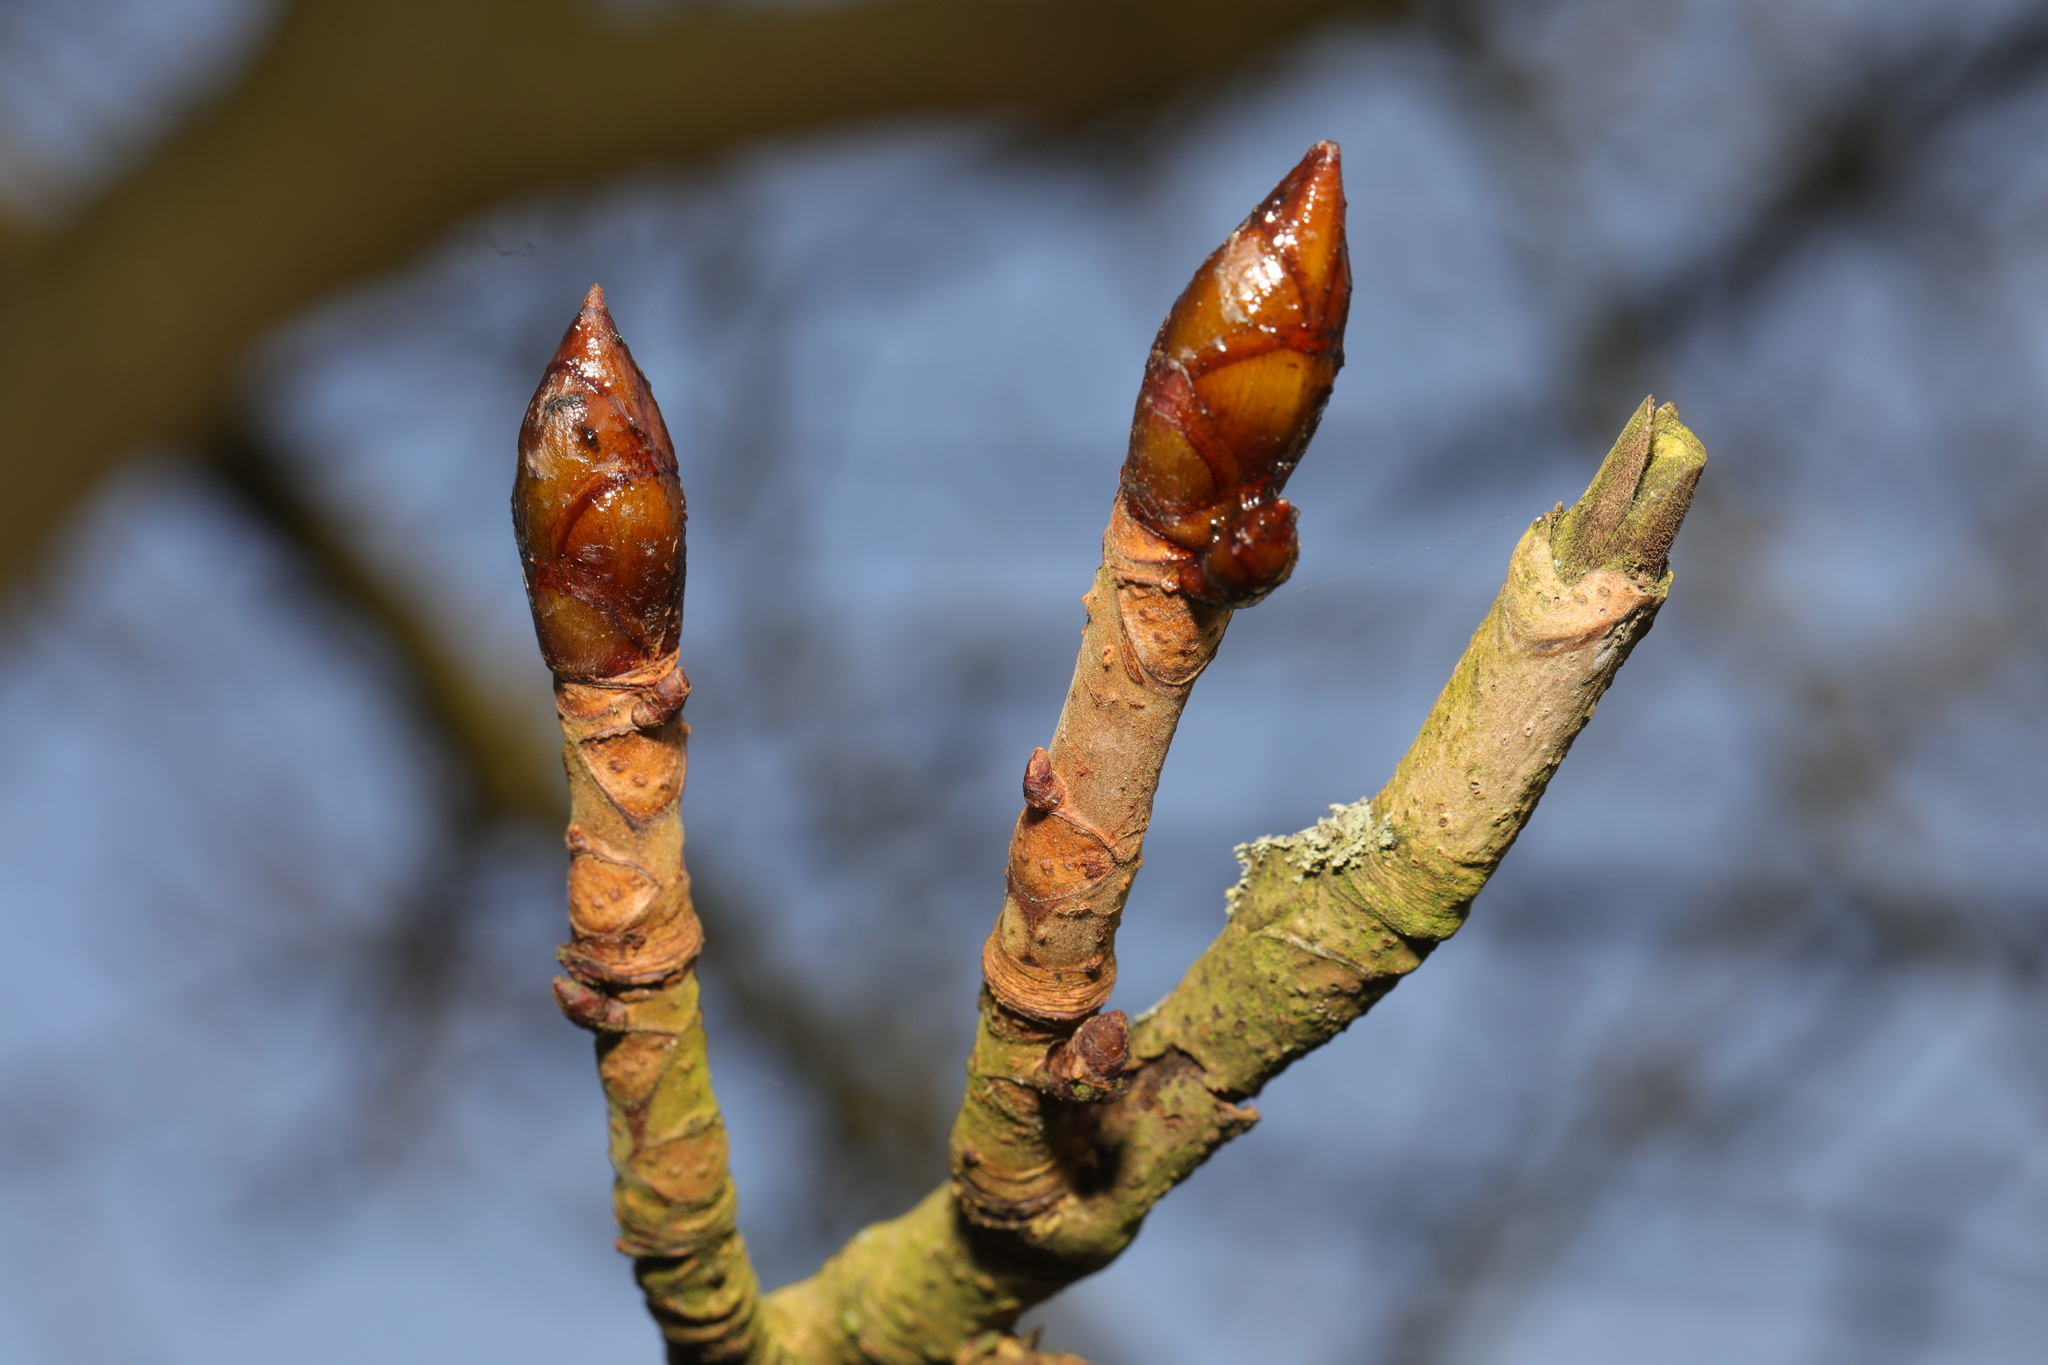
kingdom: Plantae
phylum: Tracheophyta
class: Magnoliopsida
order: Sapindales
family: Sapindaceae
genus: Aesculus
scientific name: Aesculus hippocastanum
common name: Horse-chestnut
